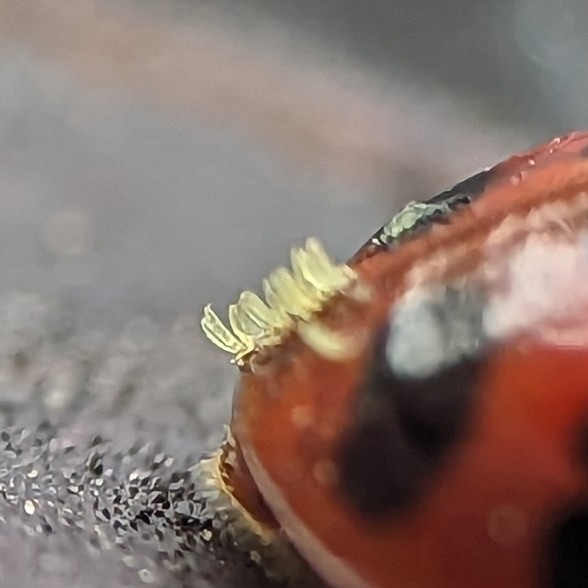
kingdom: Fungi
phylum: Ascomycota
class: Laboulbeniomycetes
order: Laboulbeniales
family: Laboulbeniaceae
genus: Hesperomyces
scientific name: Hesperomyces harmoniae
